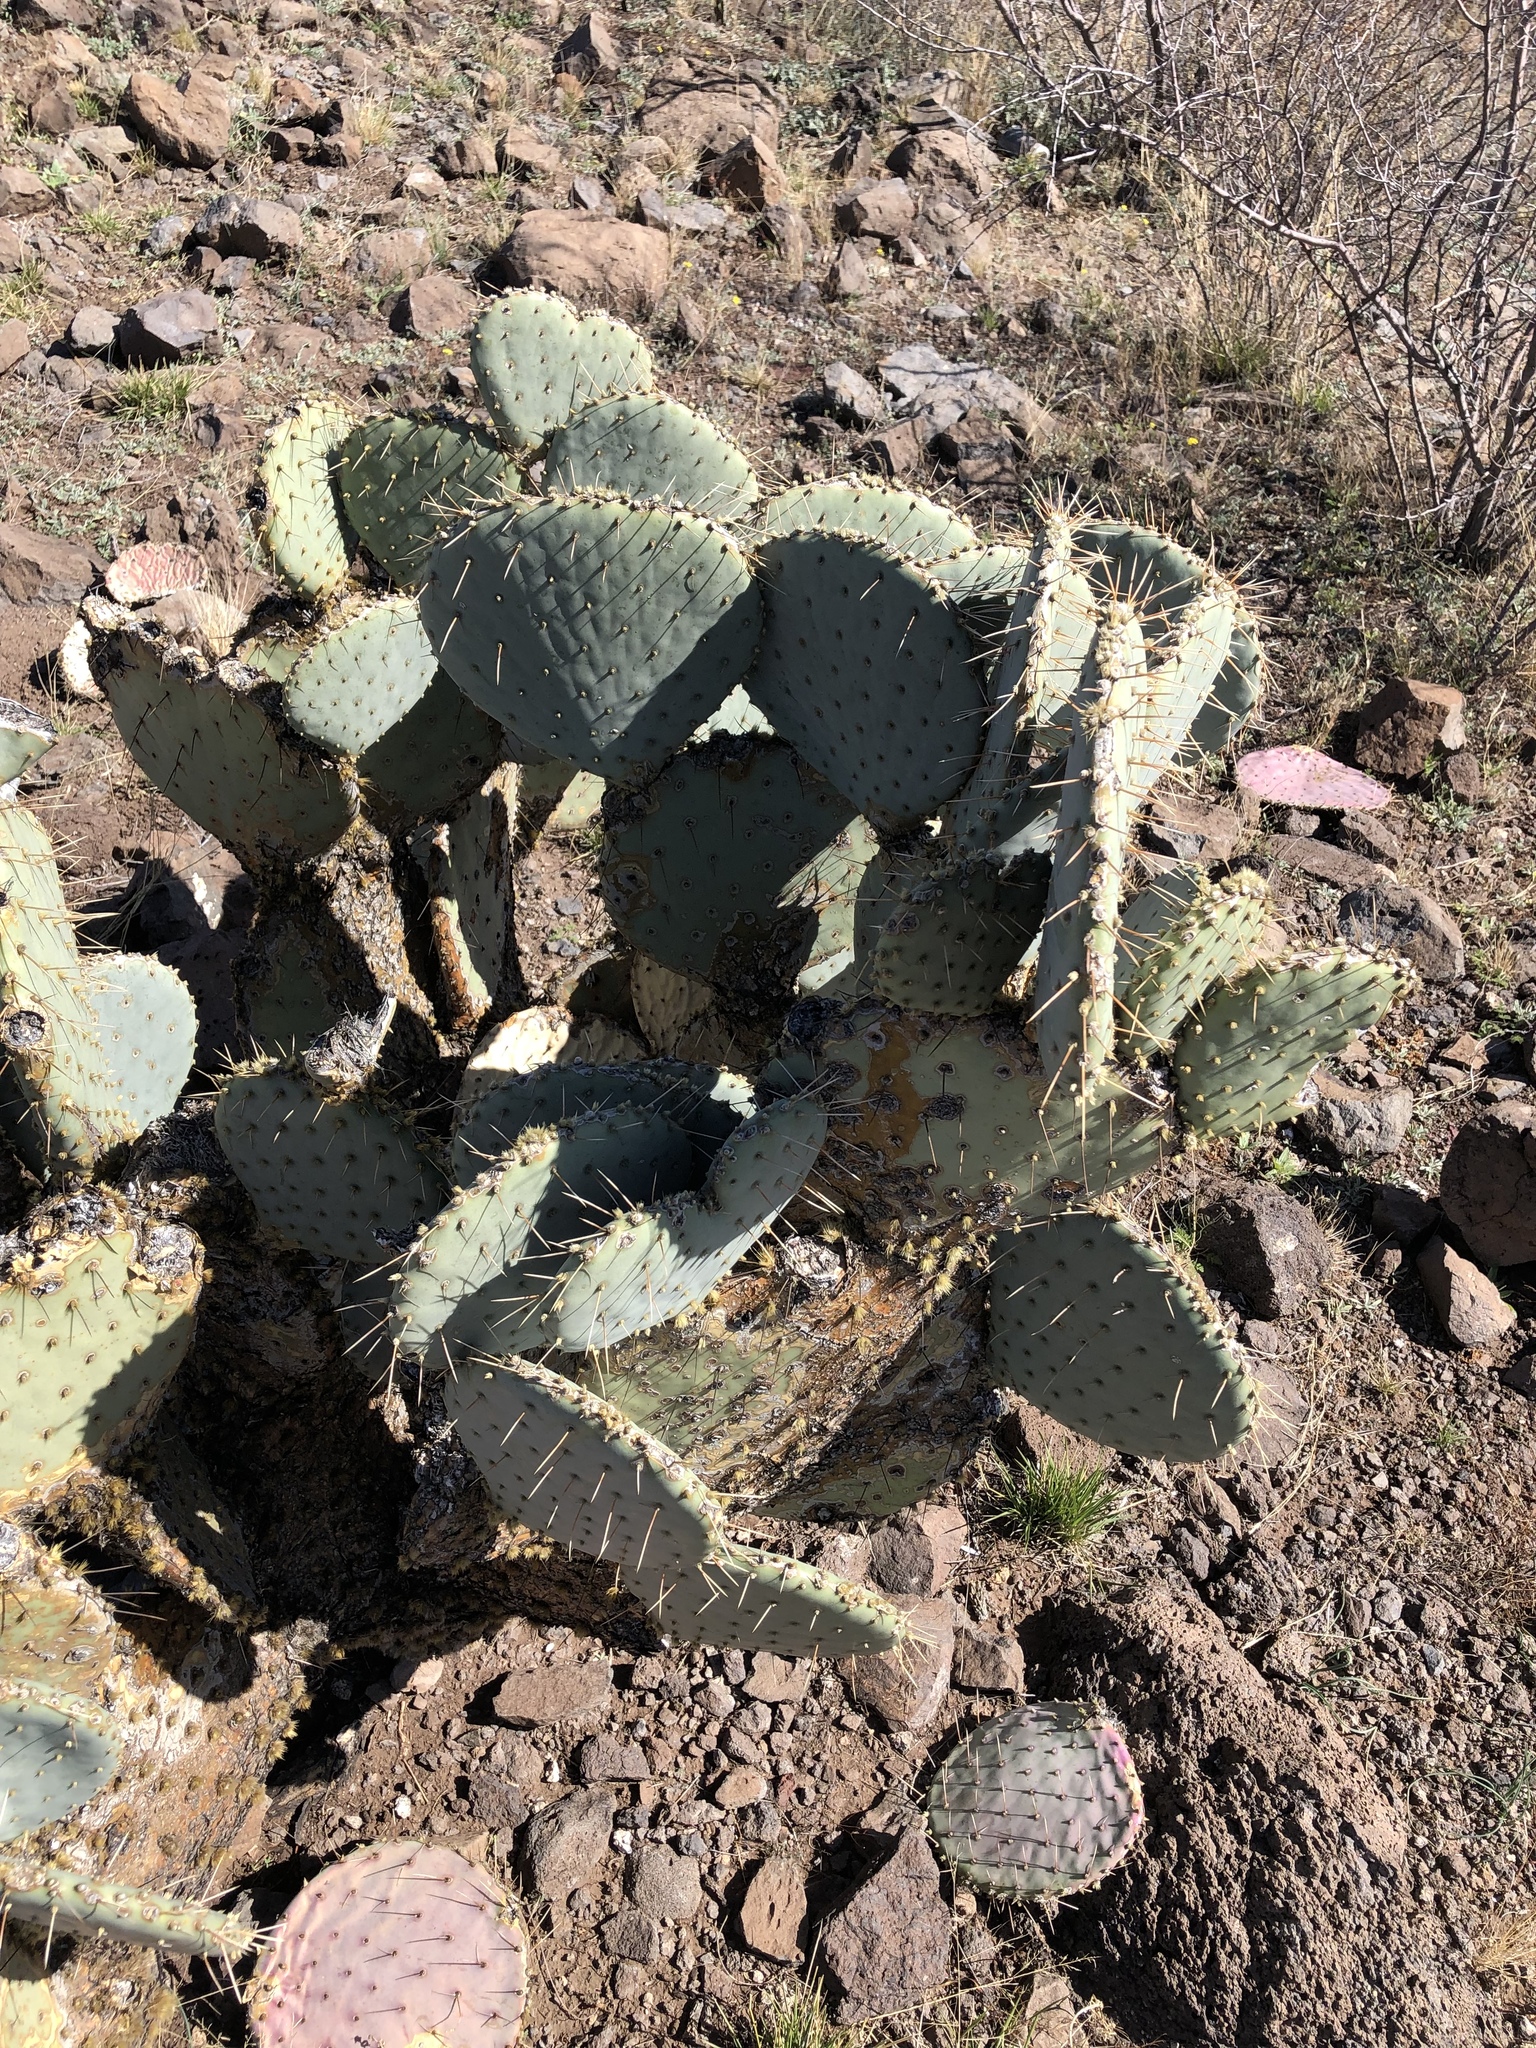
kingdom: Plantae
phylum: Tracheophyta
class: Magnoliopsida
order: Caryophyllales
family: Cactaceae
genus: Opuntia
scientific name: Opuntia gosseliniana
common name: Violet prickly-pear
